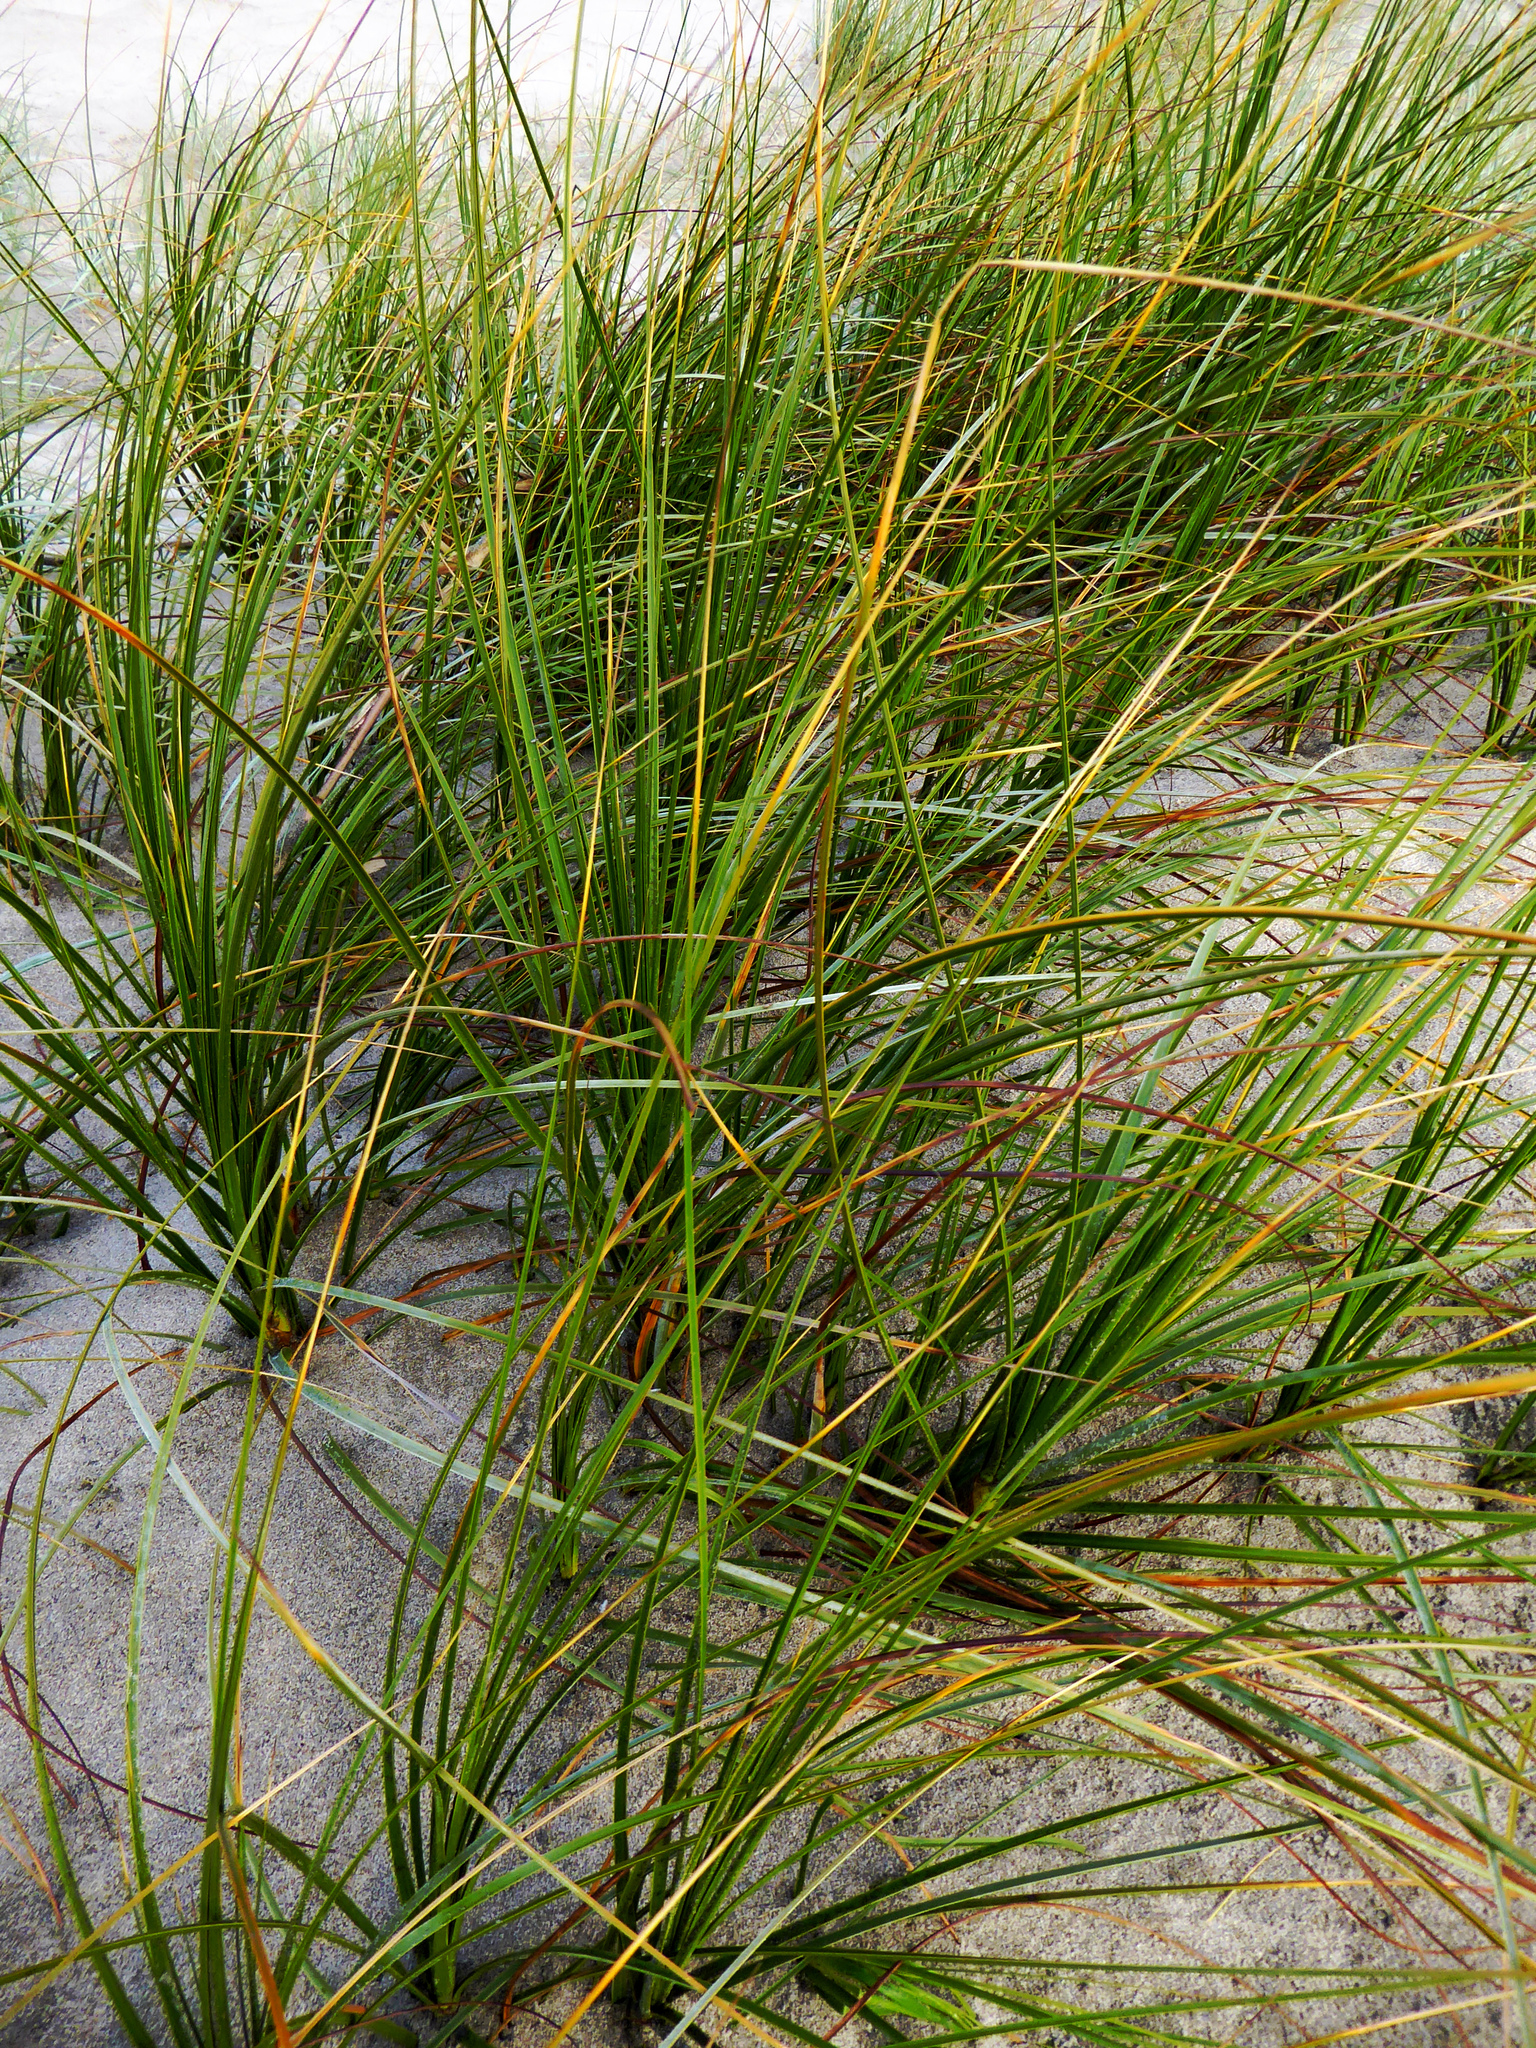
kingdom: Plantae
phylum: Tracheophyta
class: Liliopsida
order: Poales
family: Cyperaceae
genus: Ficinia
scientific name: Ficinia spiralis
